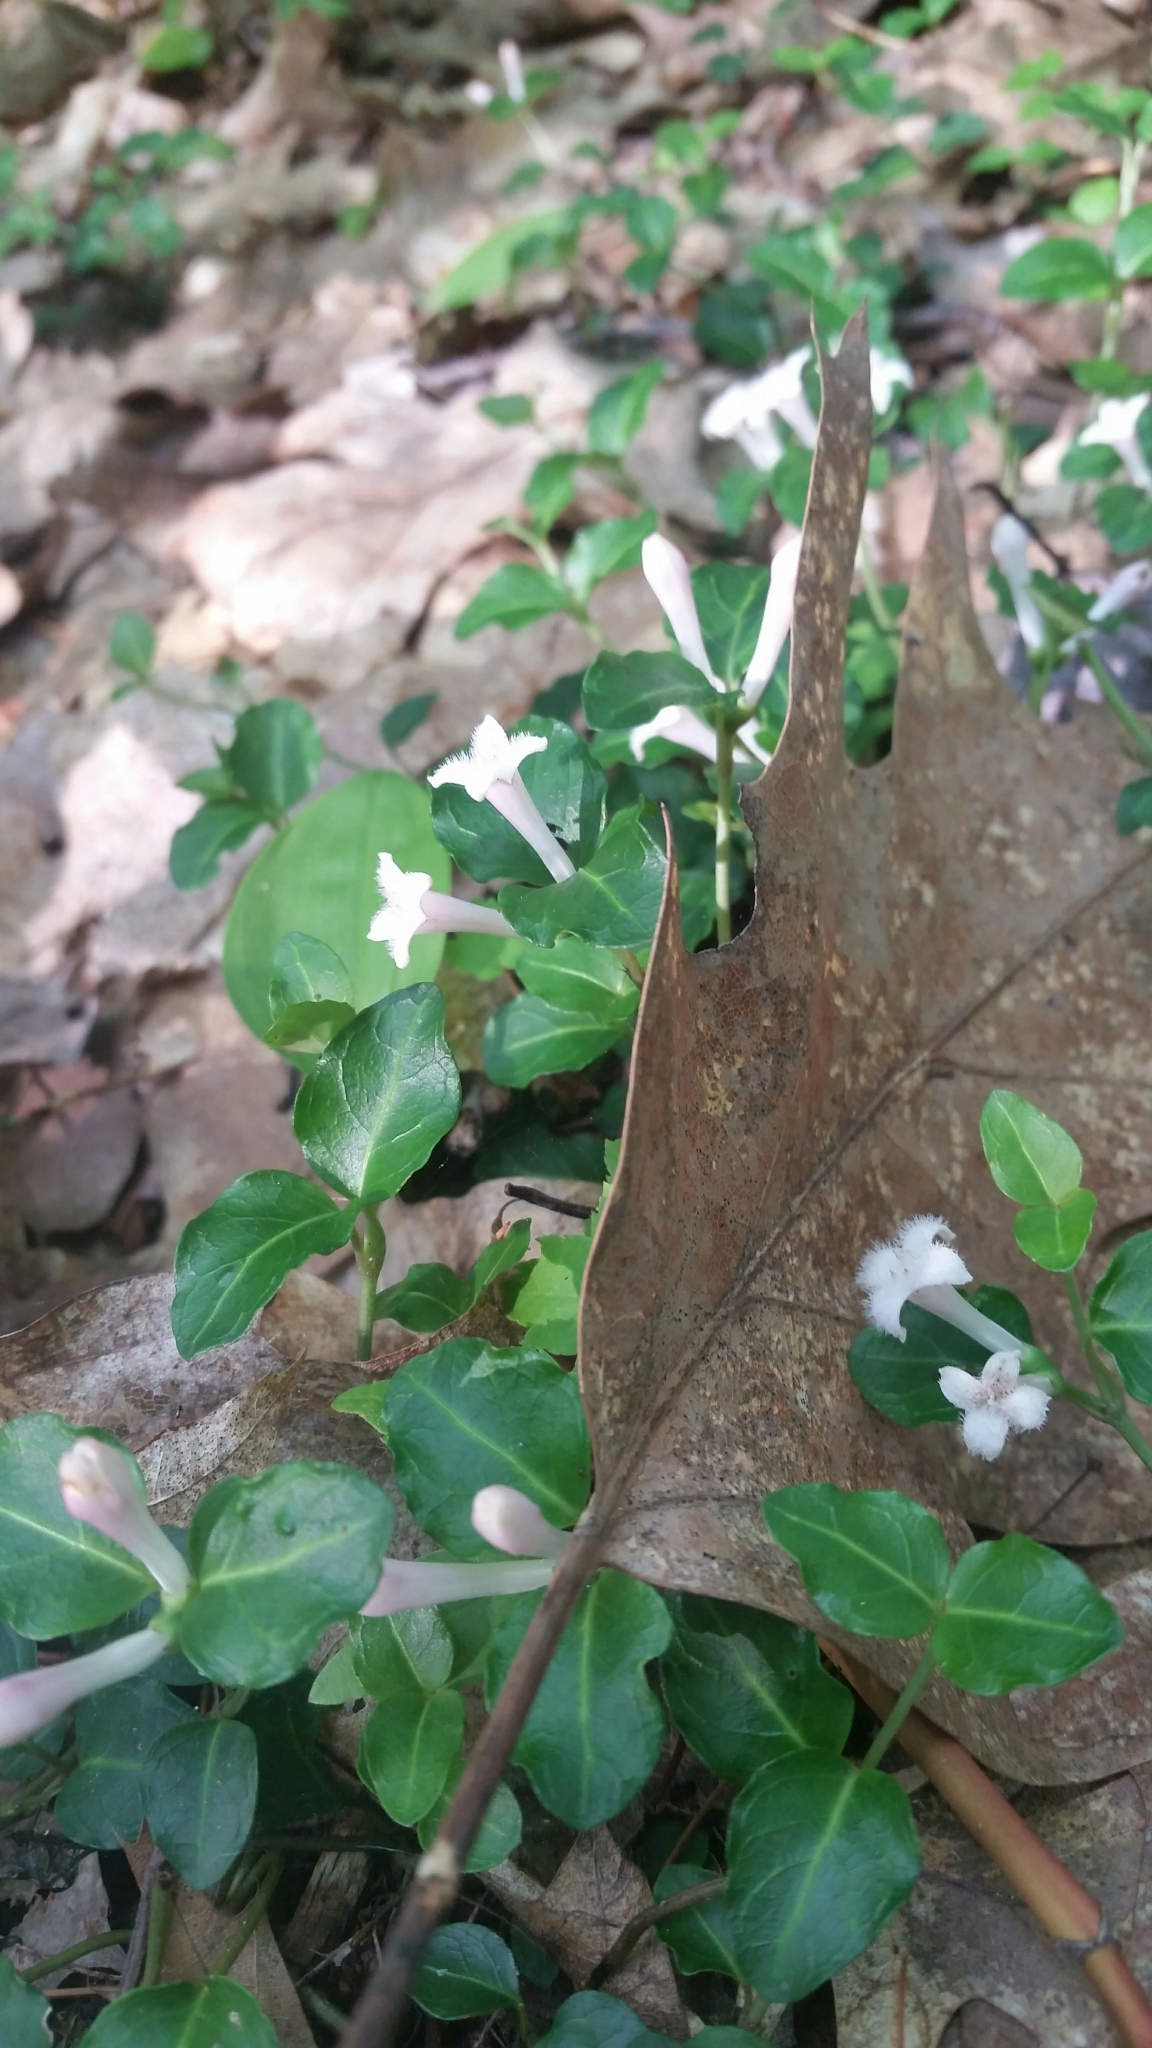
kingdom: Plantae
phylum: Tracheophyta
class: Magnoliopsida
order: Gentianales
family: Rubiaceae
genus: Mitchella
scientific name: Mitchella repens
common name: Partridge-berry
